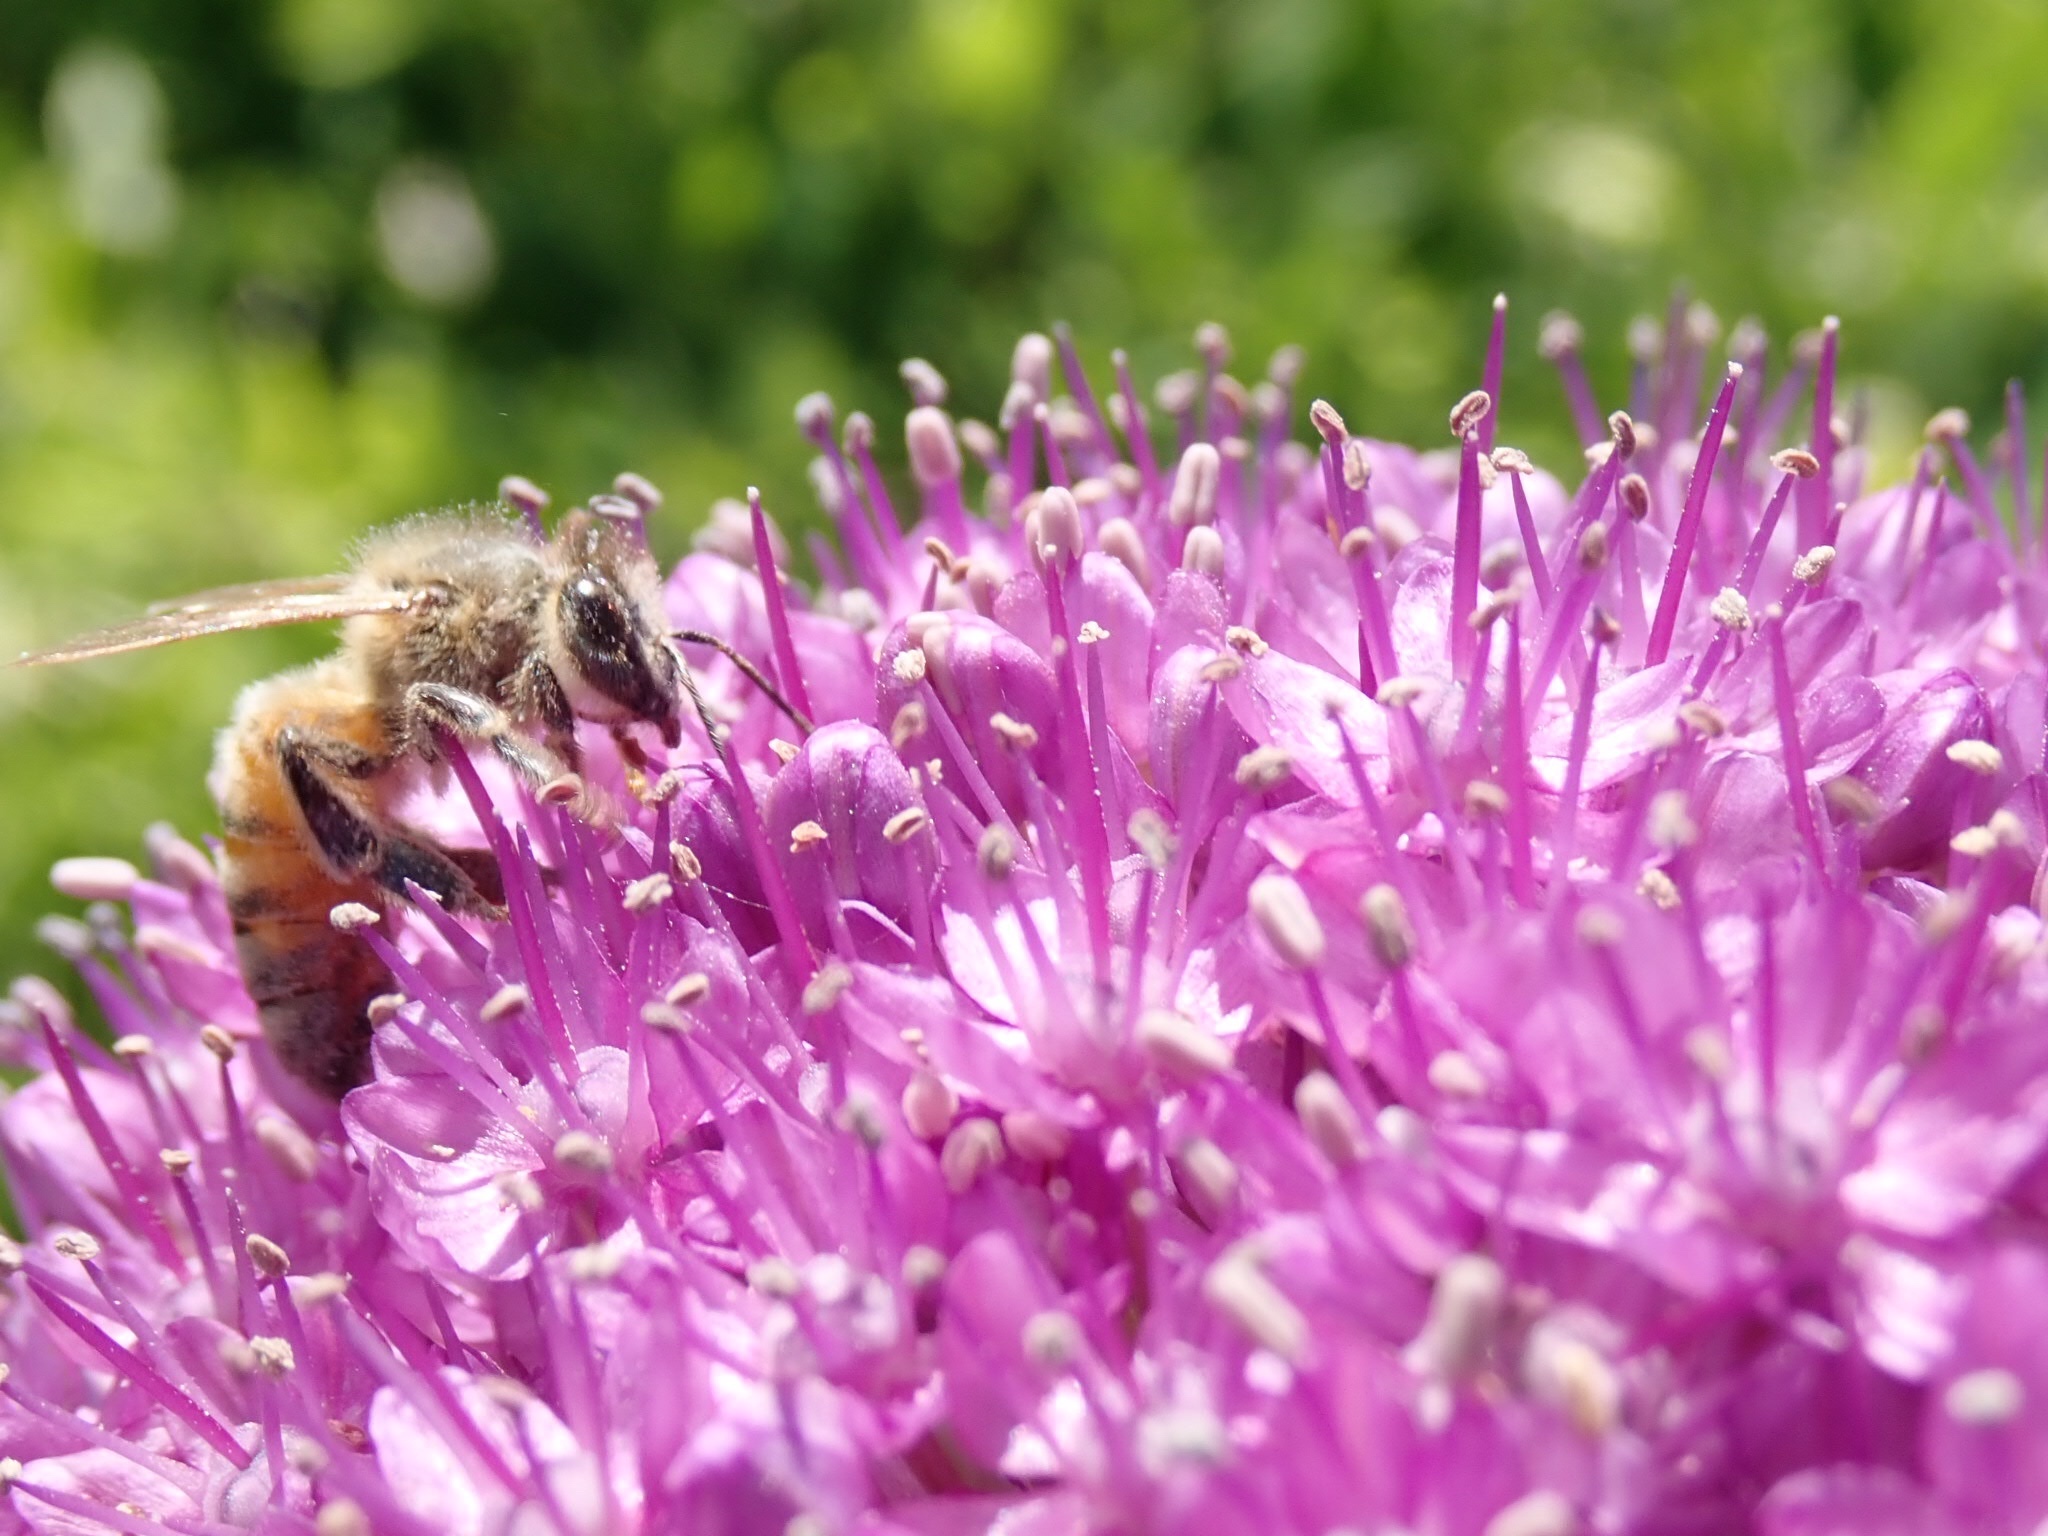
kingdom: Animalia
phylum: Arthropoda
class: Insecta
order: Hymenoptera
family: Apidae
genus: Apis
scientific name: Apis mellifera
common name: Honey bee
